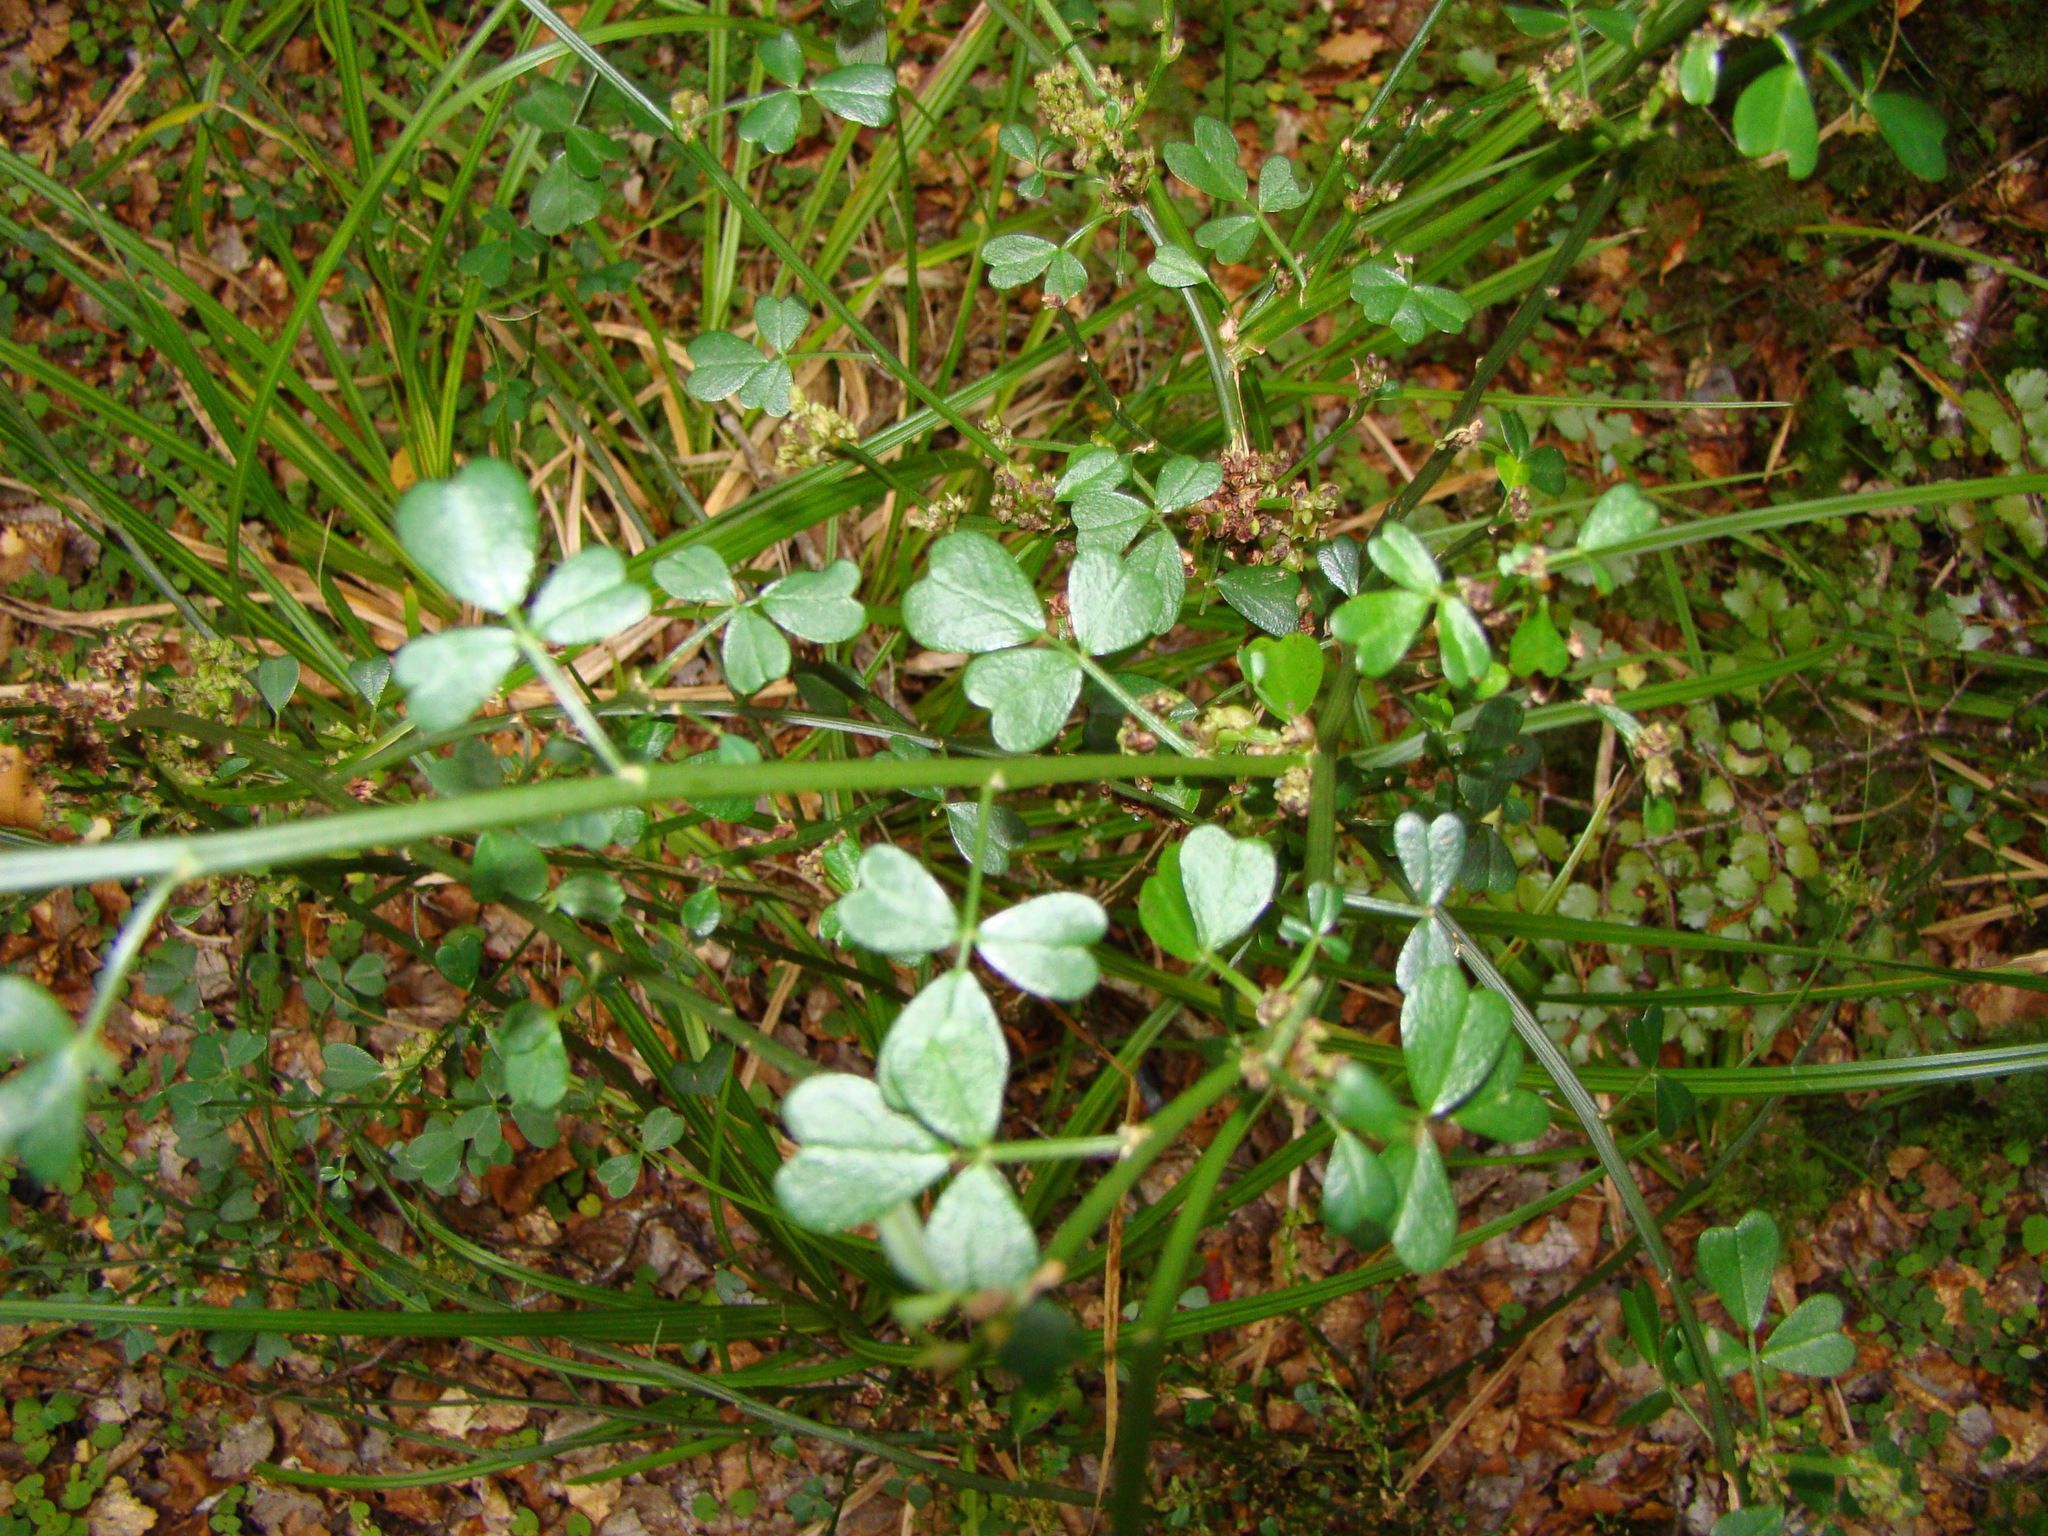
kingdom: Plantae
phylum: Tracheophyta
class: Magnoliopsida
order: Fabales
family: Fabaceae
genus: Carmichaelia
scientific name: Carmichaelia arborea
